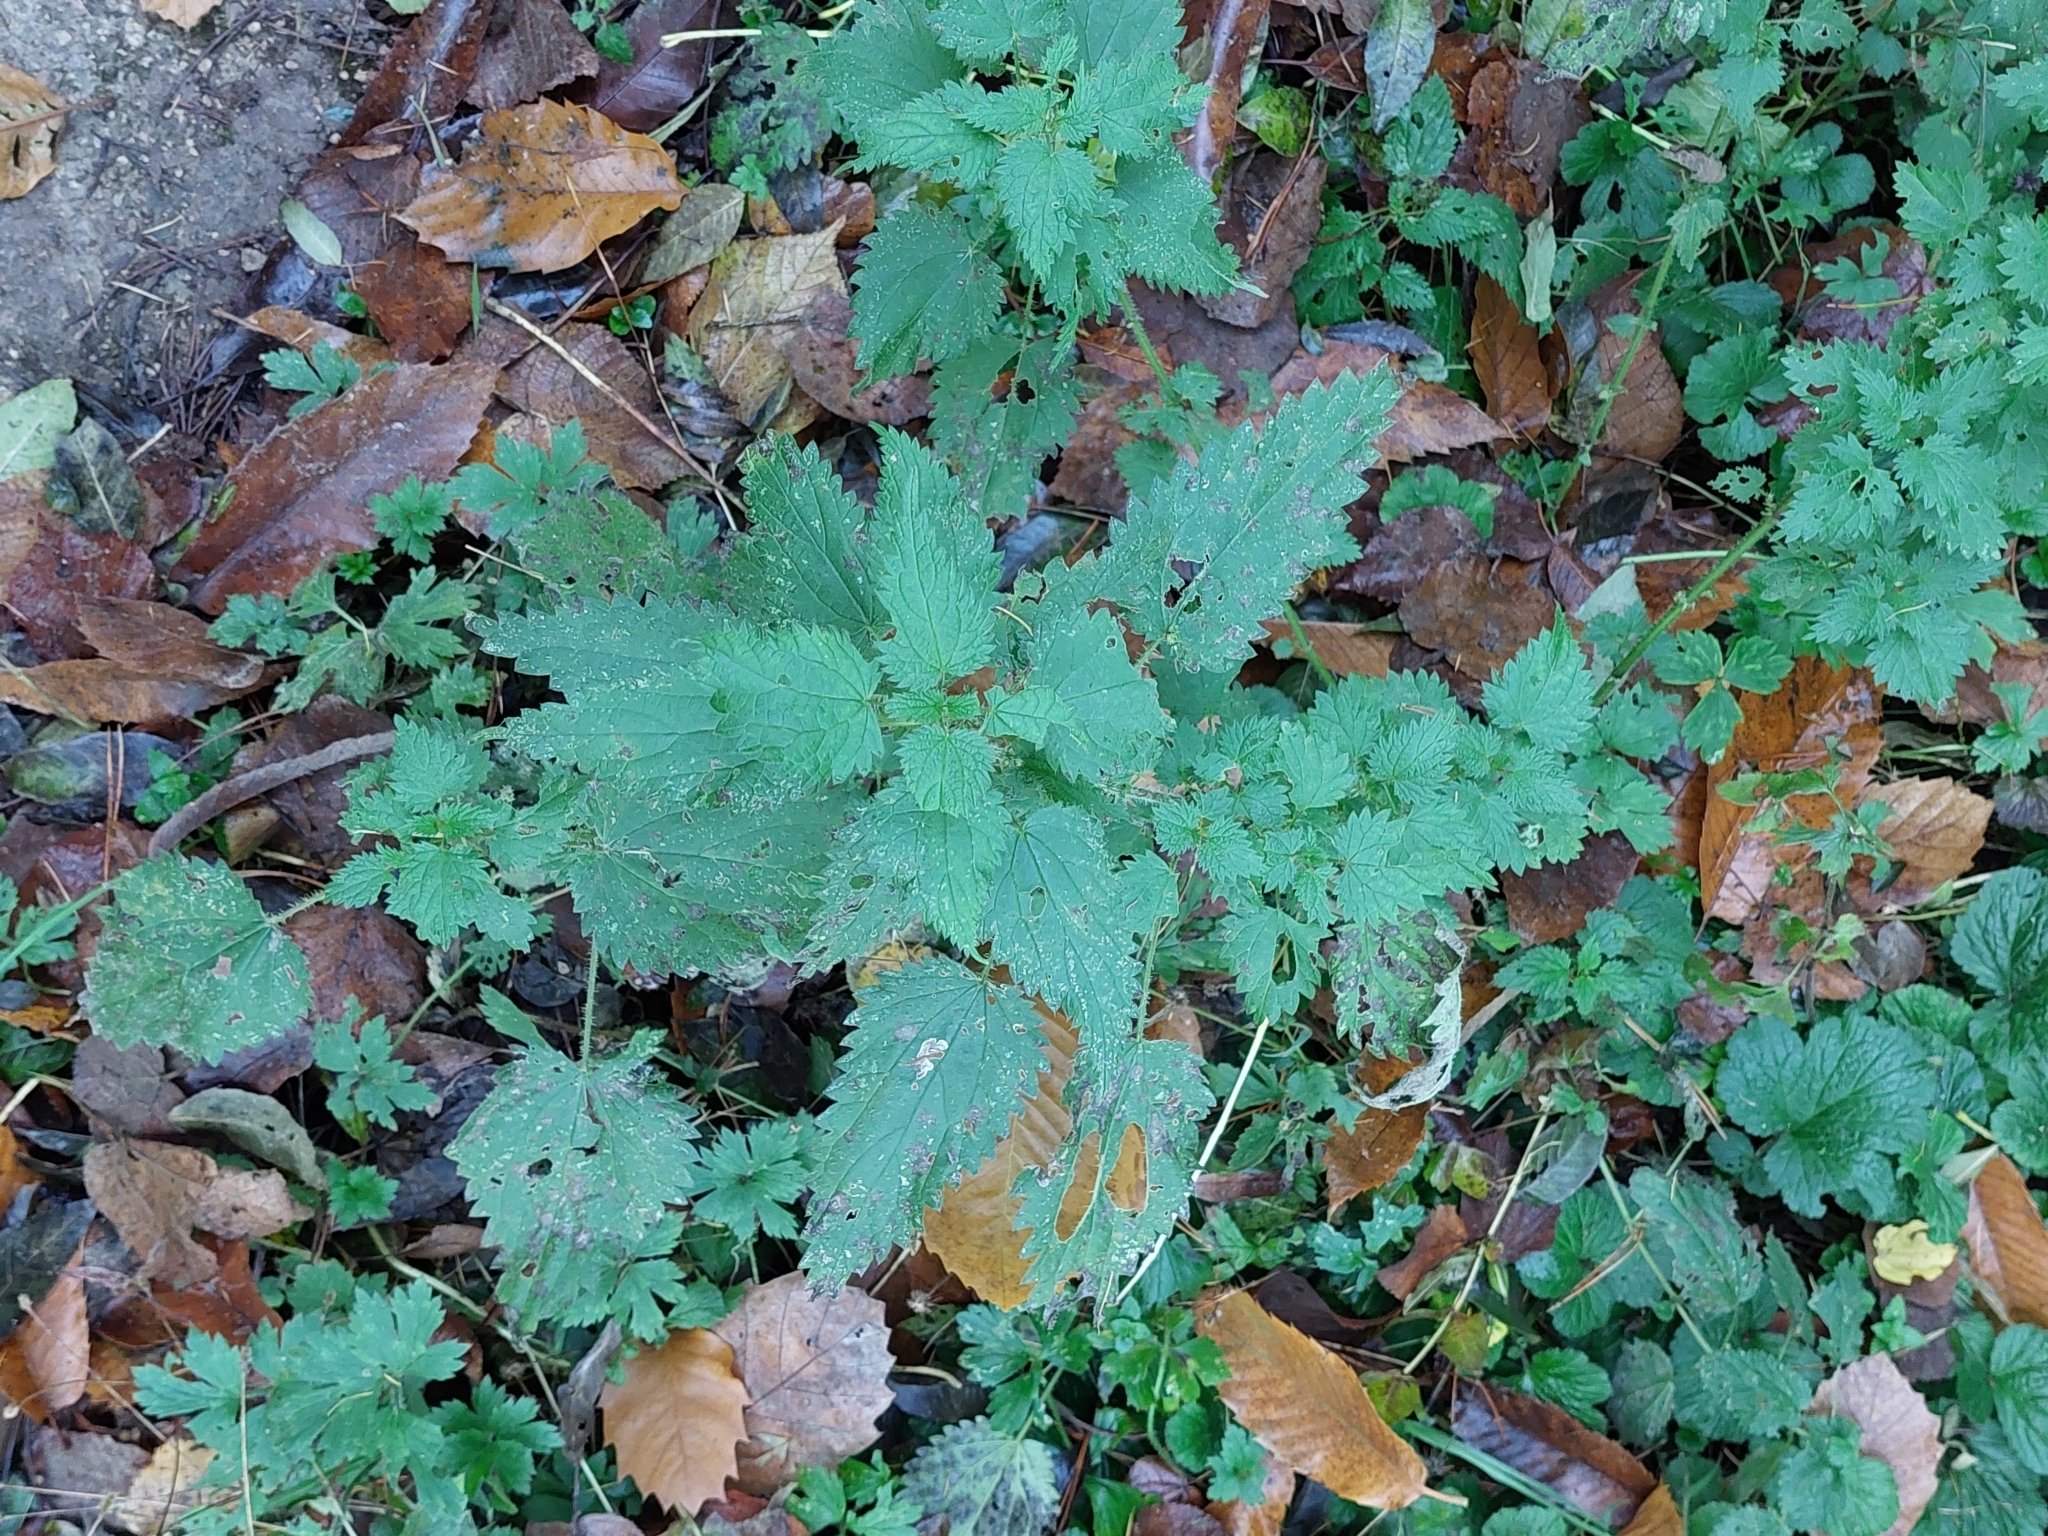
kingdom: Plantae
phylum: Tracheophyta
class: Magnoliopsida
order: Rosales
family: Urticaceae
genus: Urtica
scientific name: Urtica dioica
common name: Common nettle
